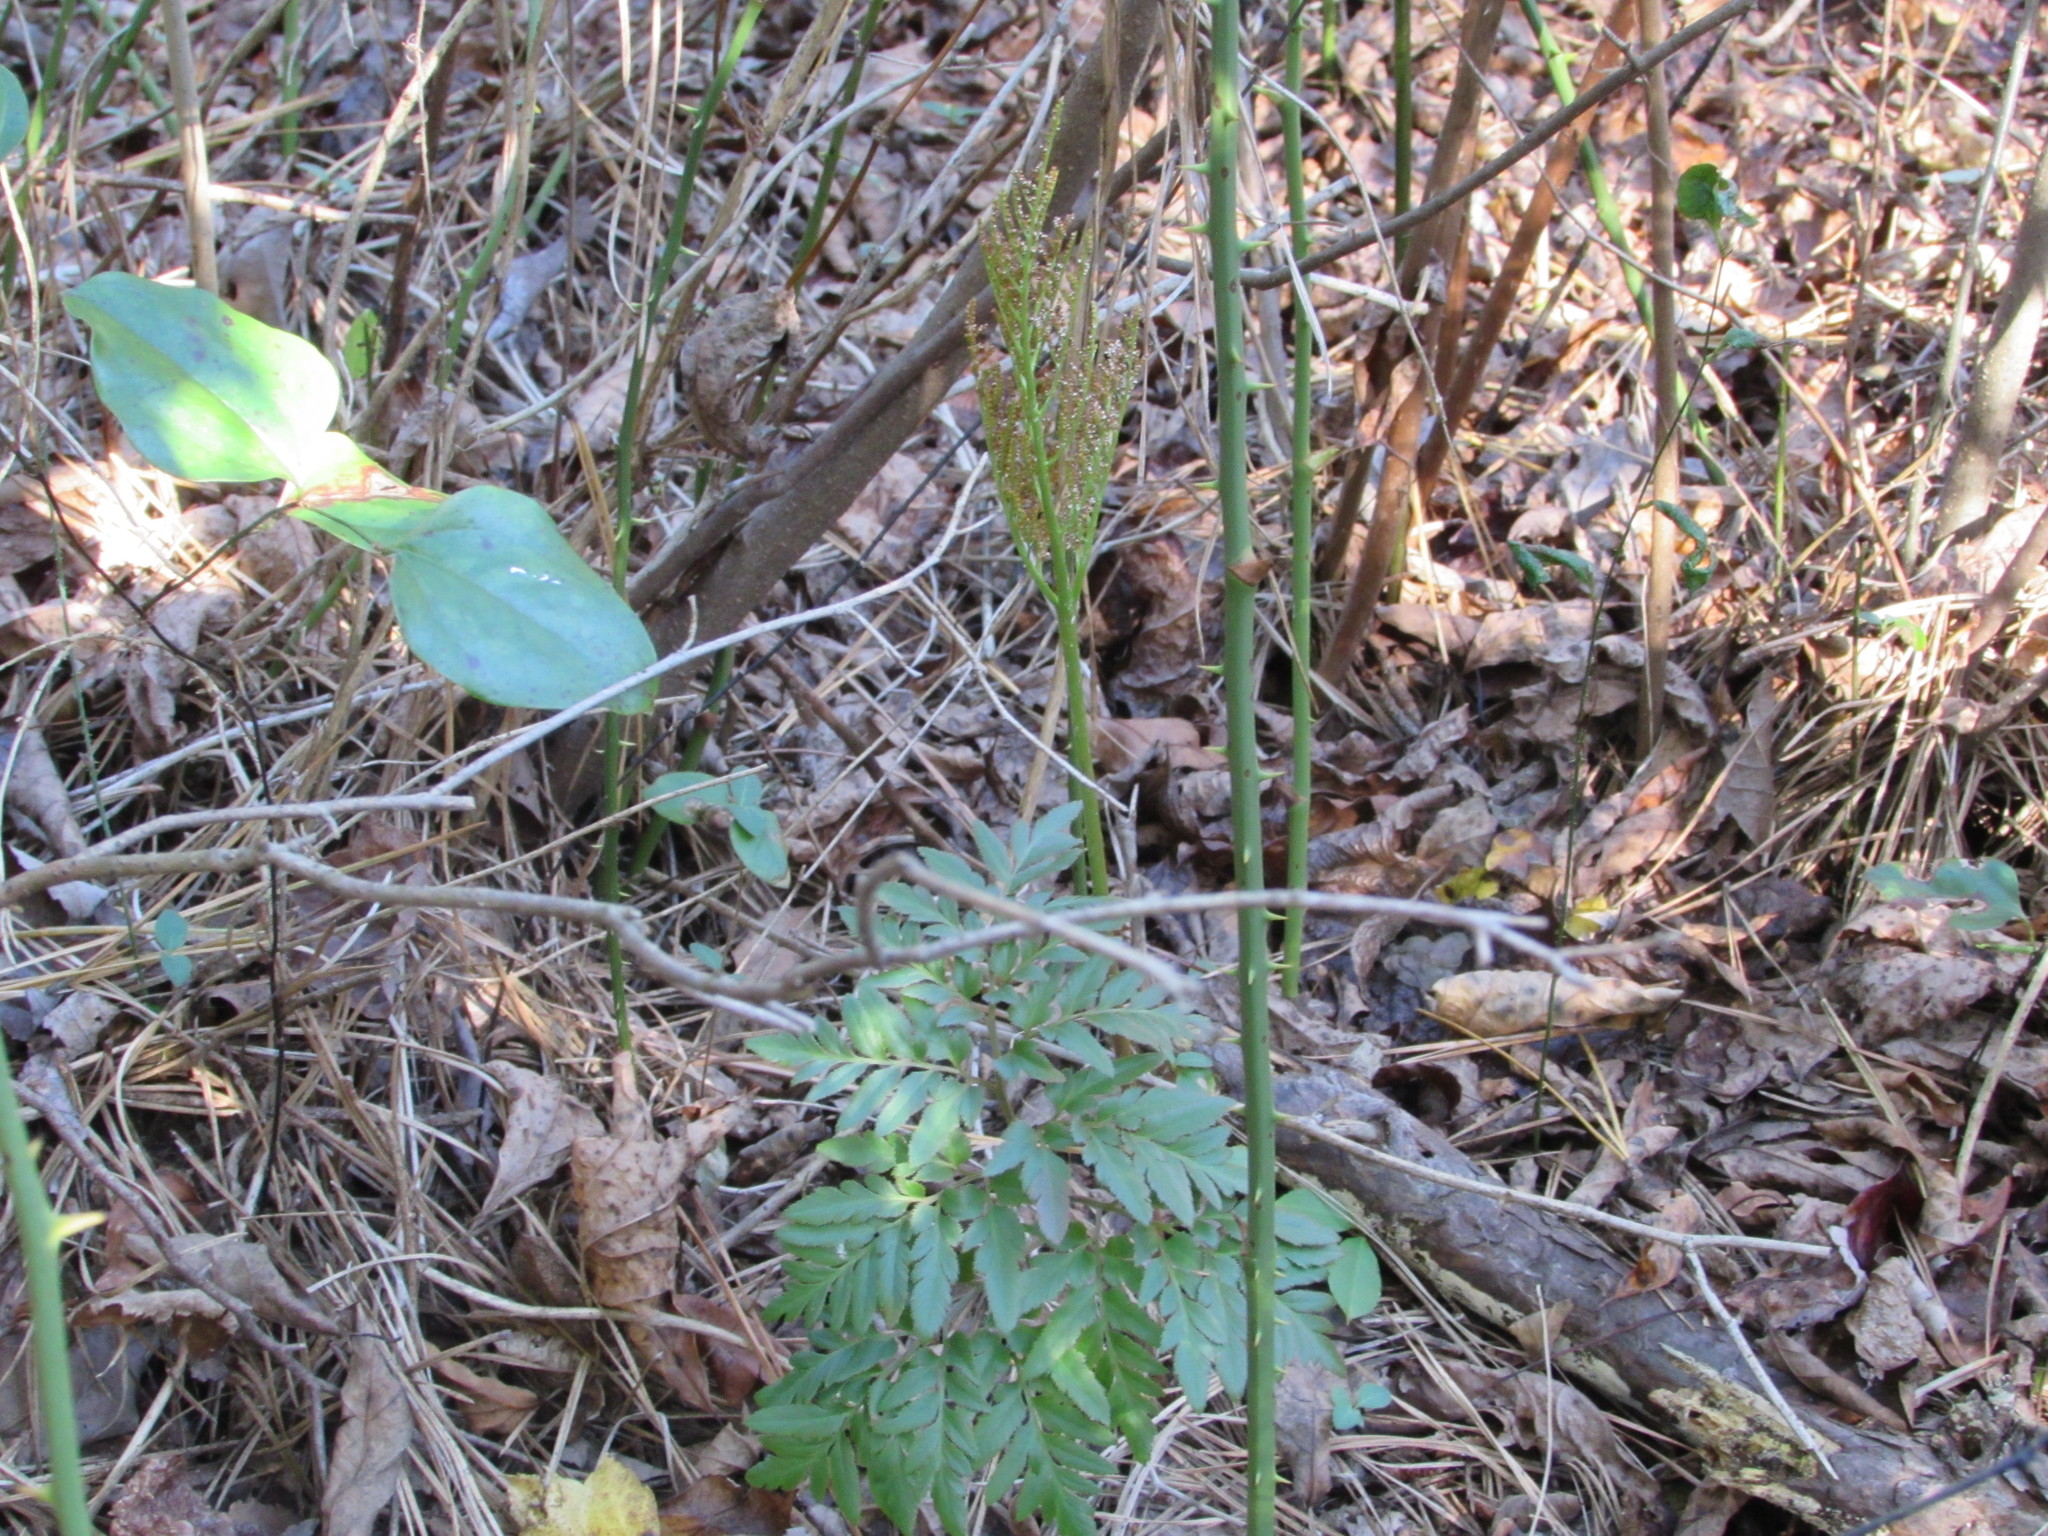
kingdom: Plantae
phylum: Tracheophyta
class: Polypodiopsida
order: Ophioglossales
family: Ophioglossaceae
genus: Sceptridium
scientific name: Sceptridium dissectum
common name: Cut-leaved grapefern
